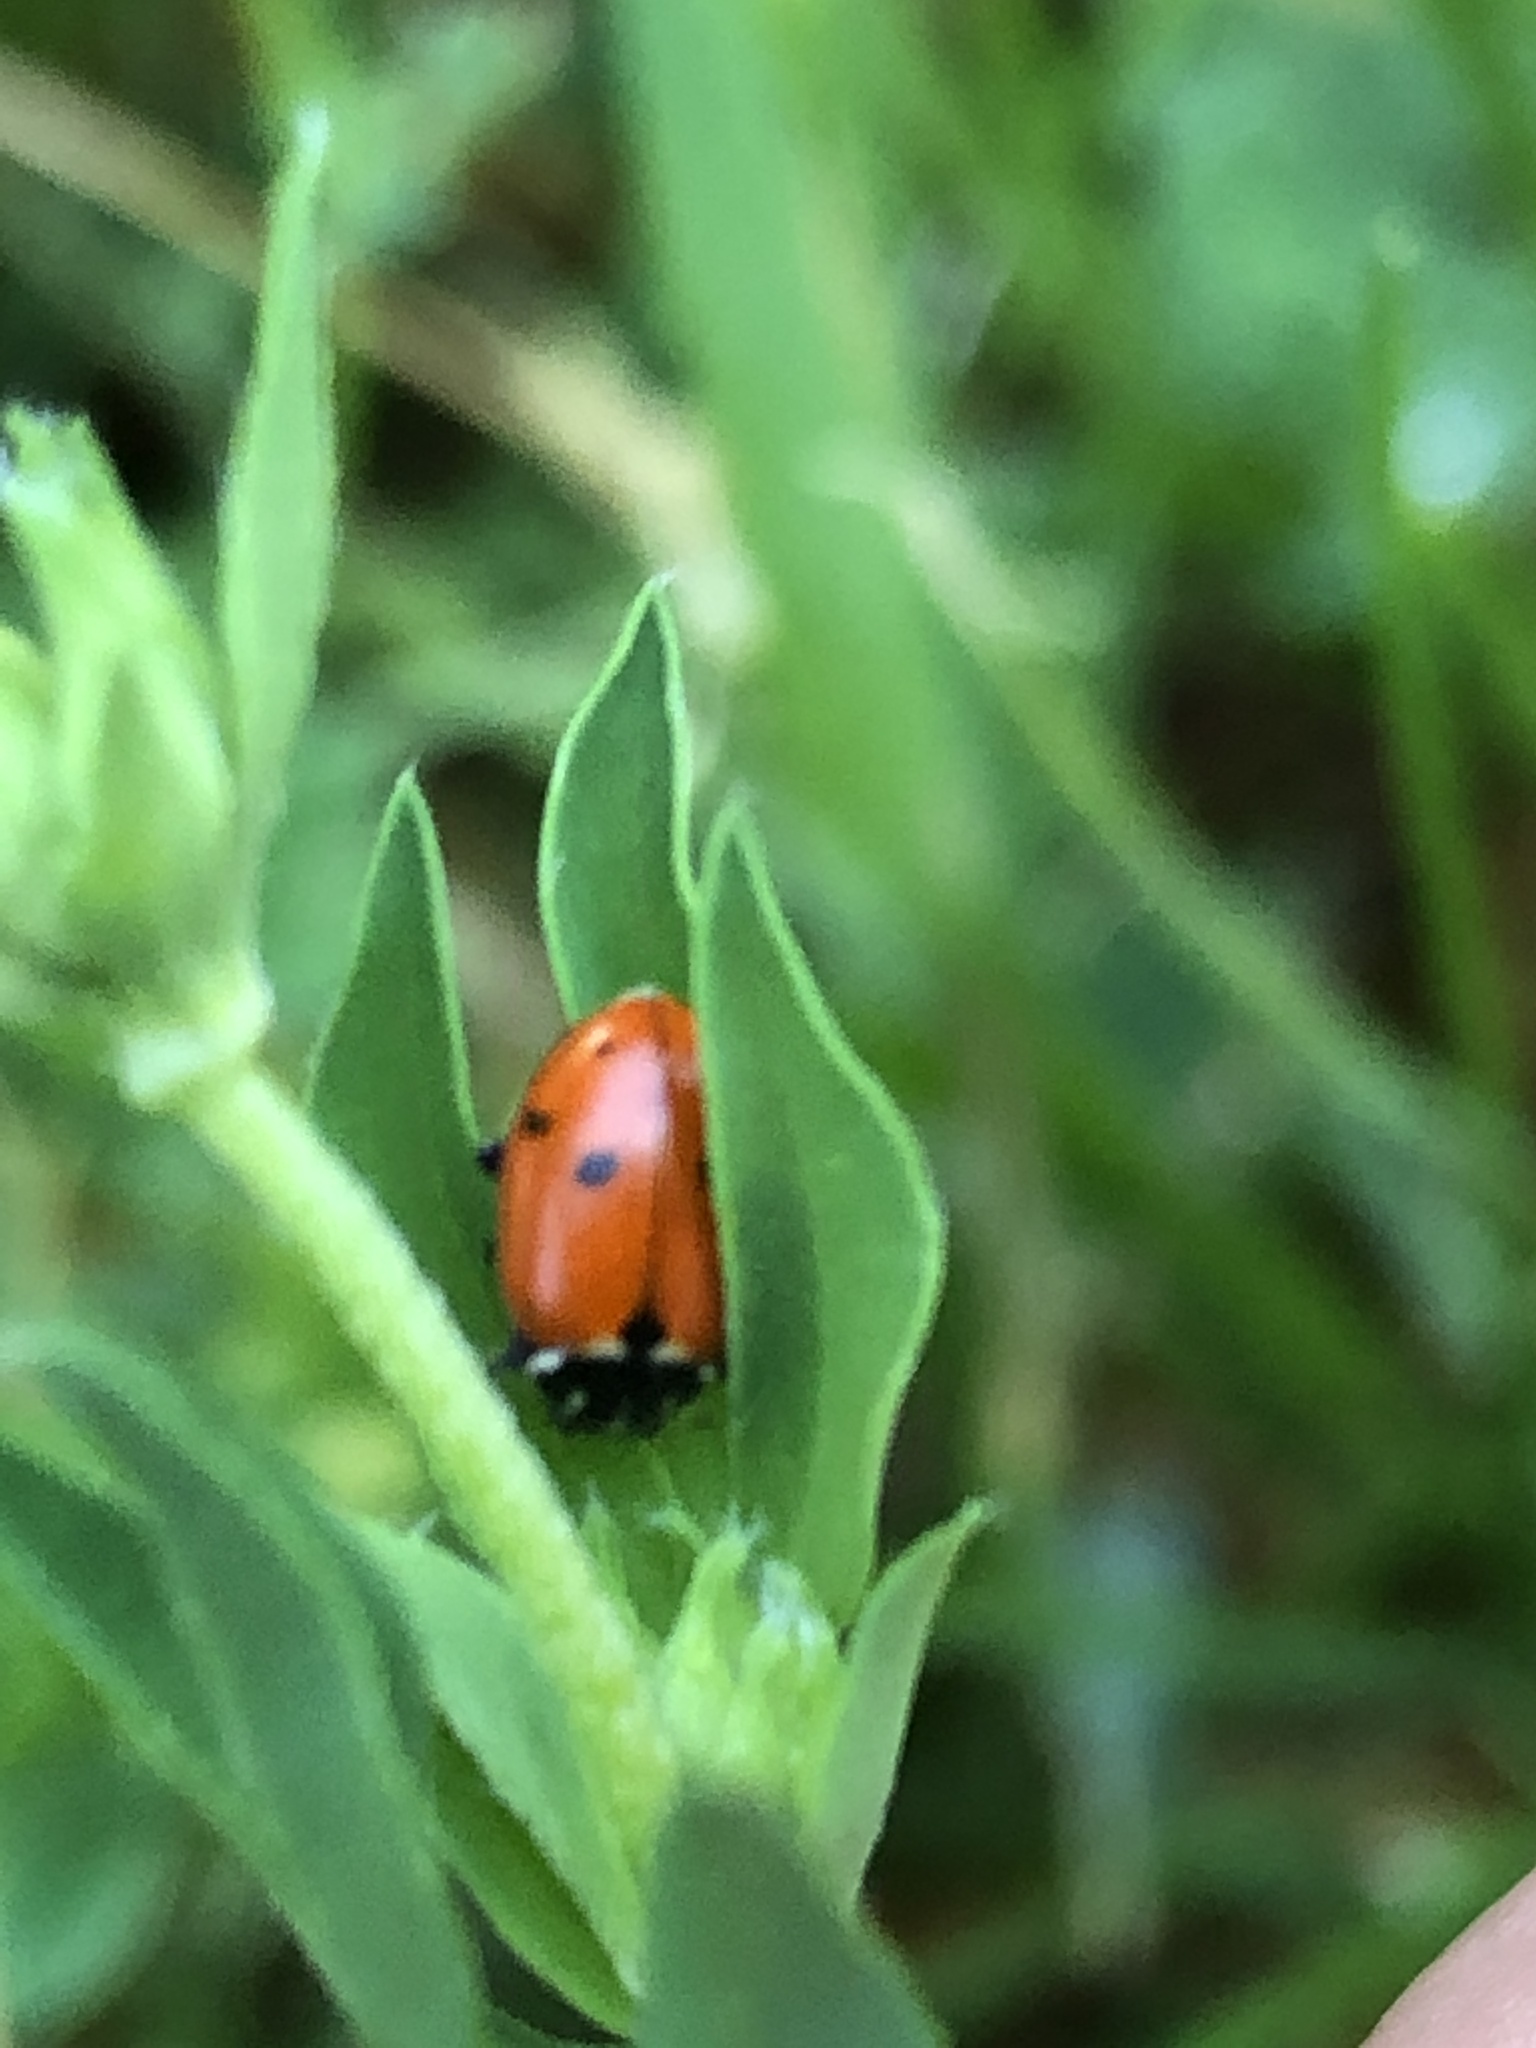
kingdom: Animalia
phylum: Arthropoda
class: Insecta
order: Coleoptera
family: Coccinellidae
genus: Hippodamia
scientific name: Hippodamia variegata
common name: Ladybird beetle
